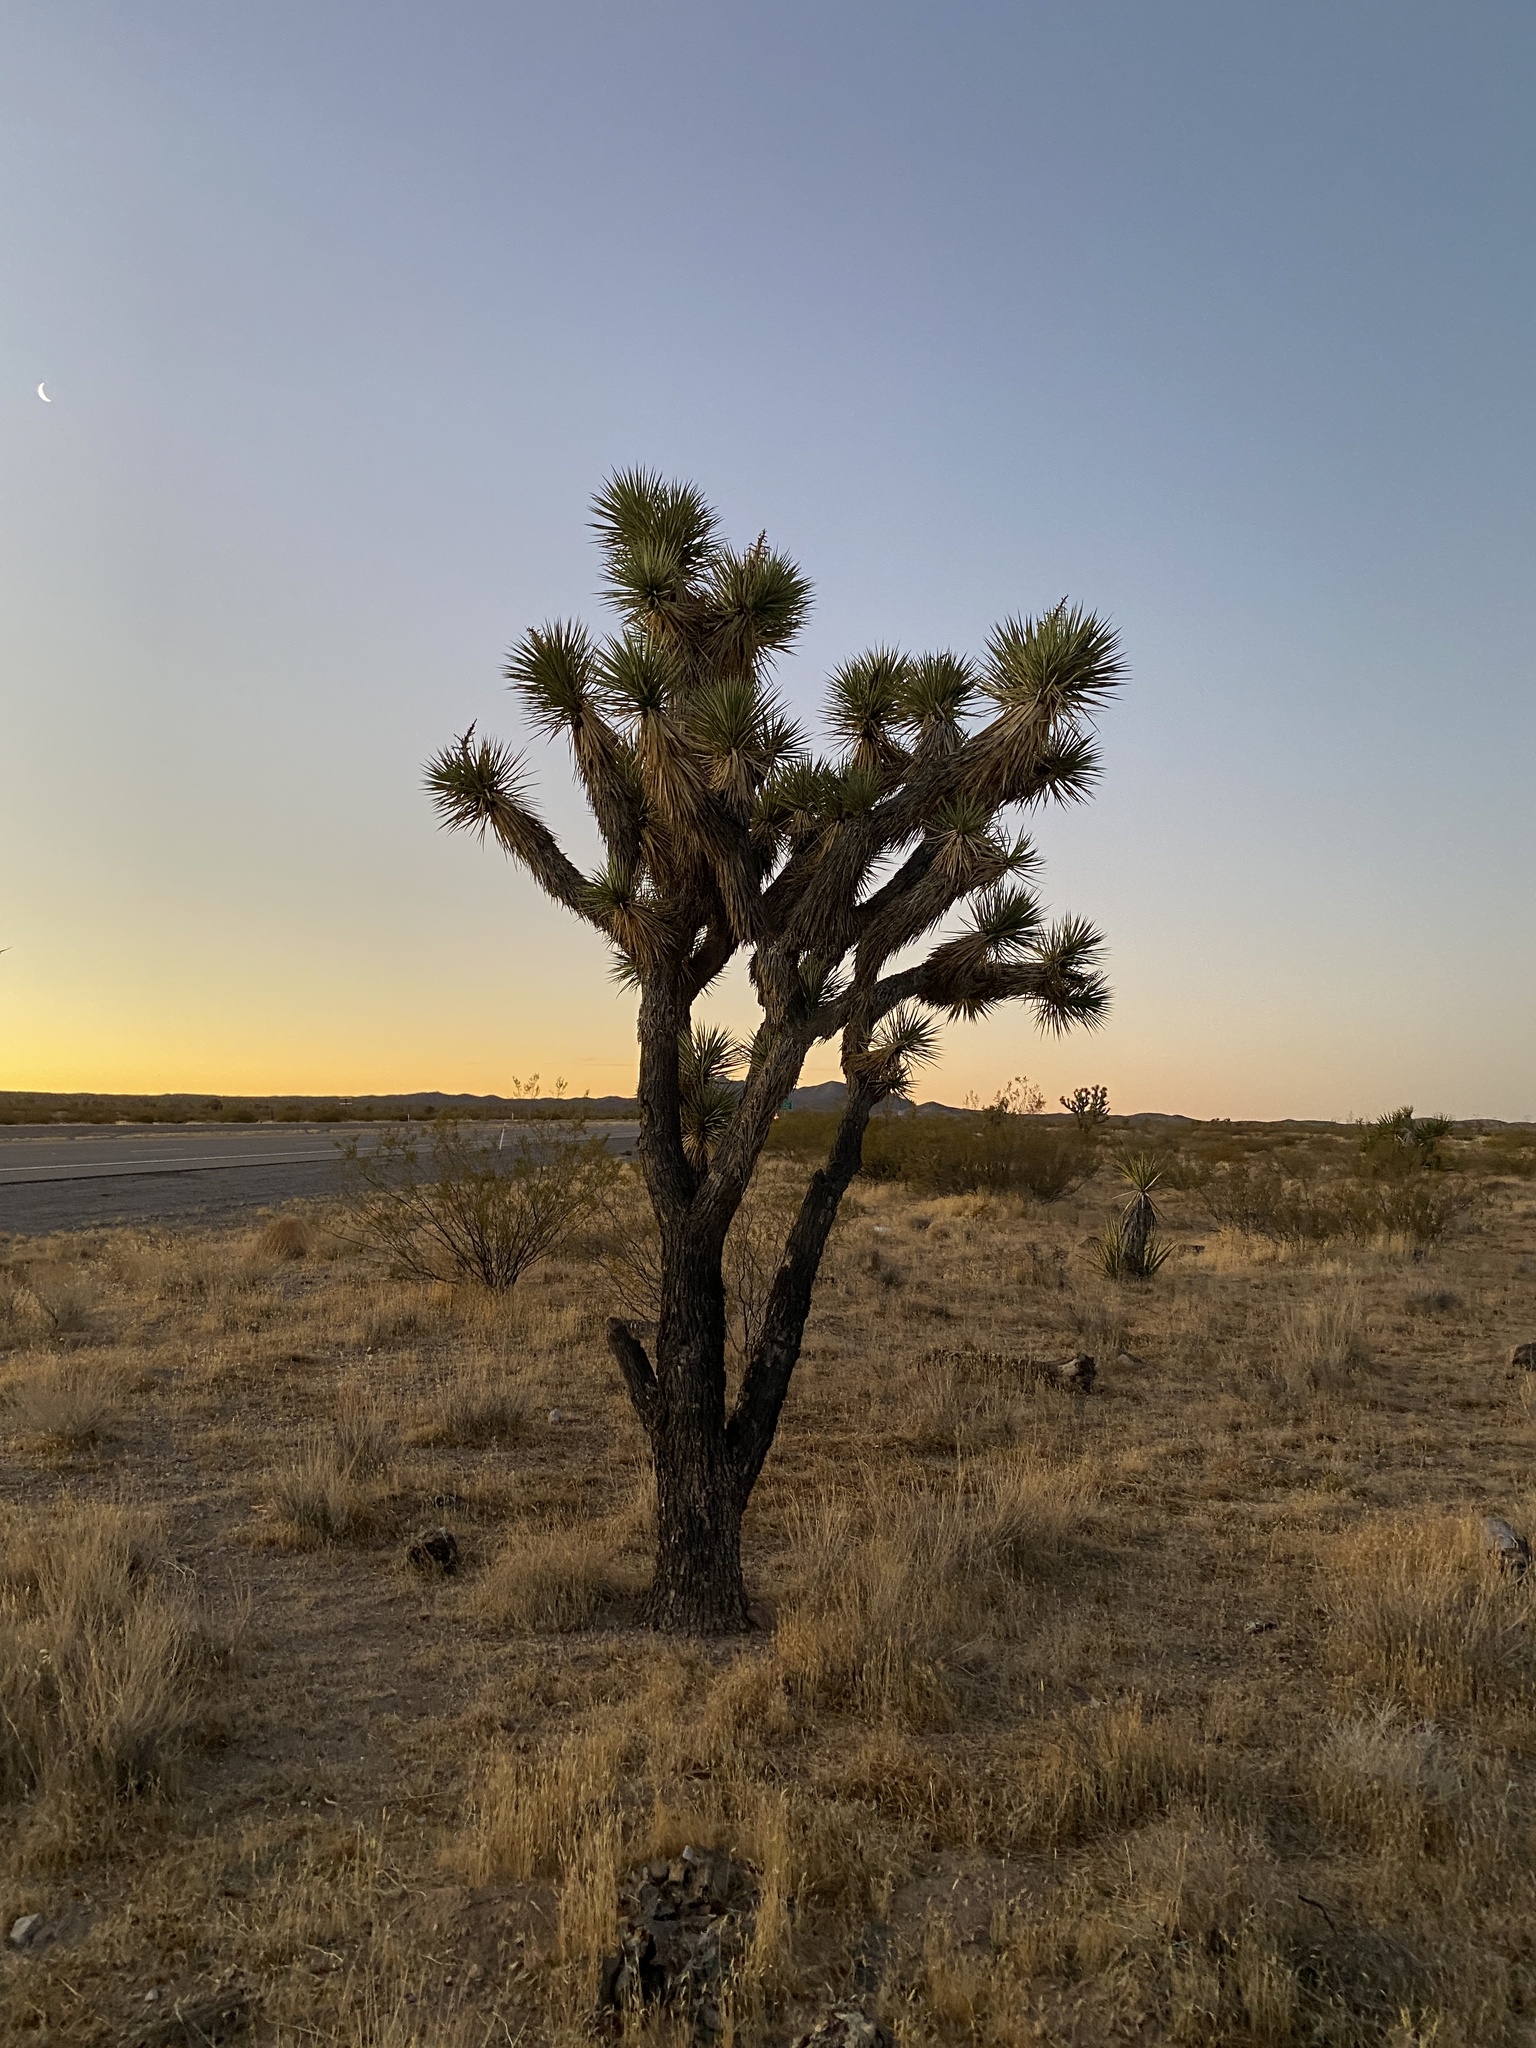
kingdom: Plantae
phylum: Tracheophyta
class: Liliopsida
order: Asparagales
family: Asparagaceae
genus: Yucca
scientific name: Yucca brevifolia
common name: Joshua tree
